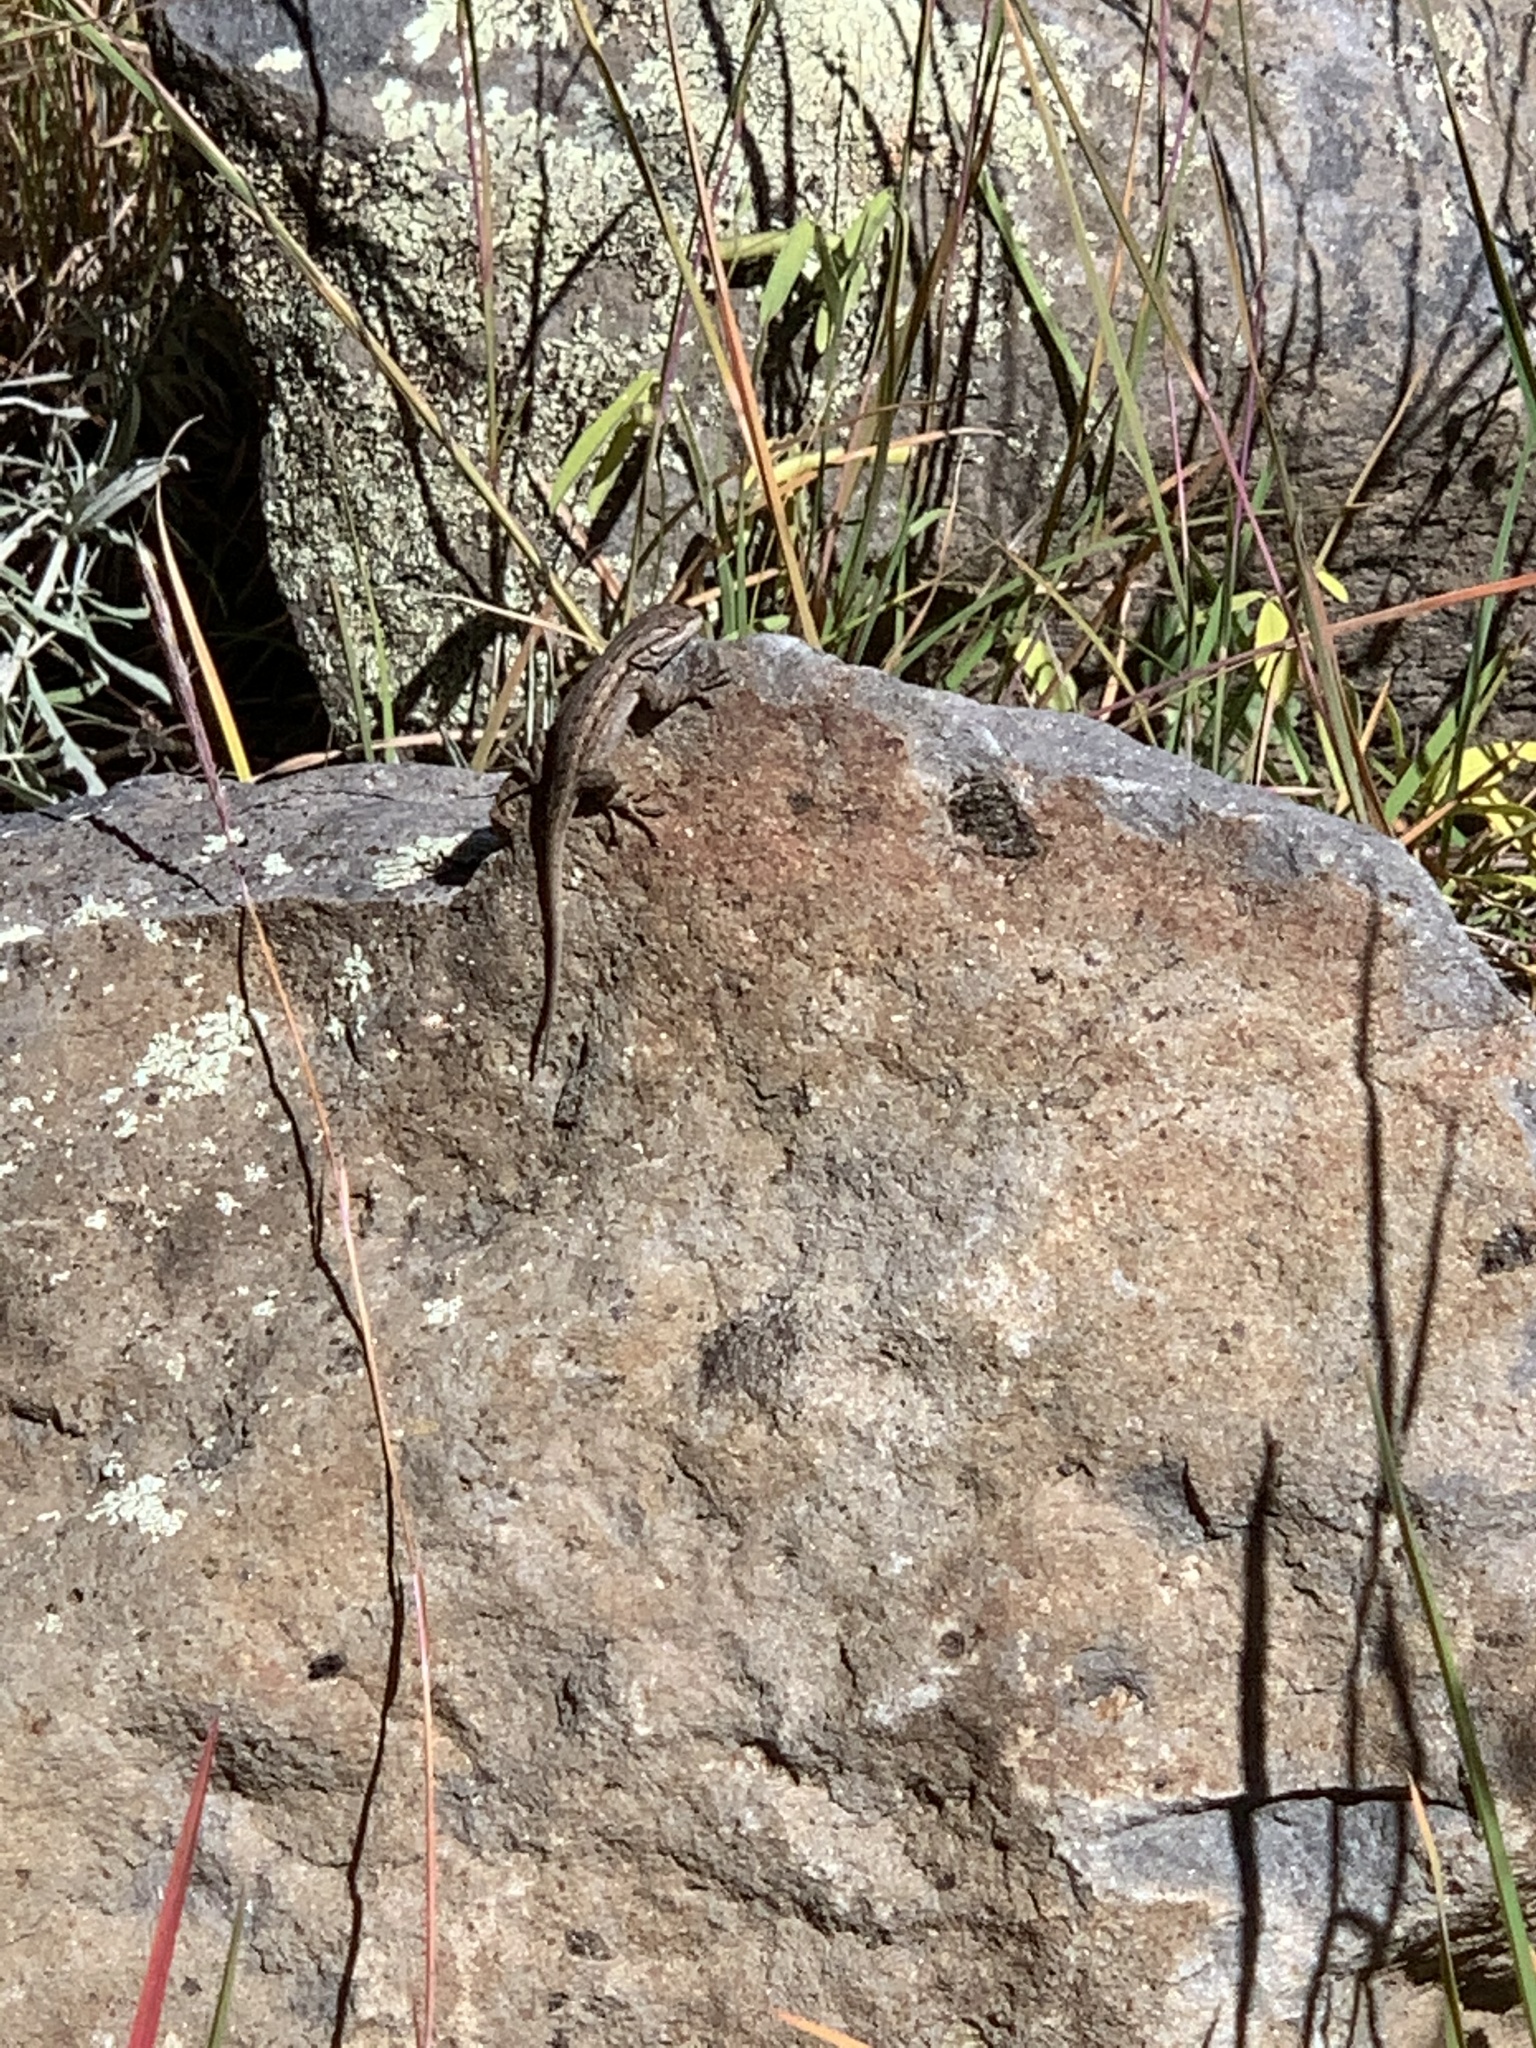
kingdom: Animalia
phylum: Chordata
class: Squamata
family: Phrynosomatidae
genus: Sceloporus
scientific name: Sceloporus tristichus
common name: Plateau fence lizard
